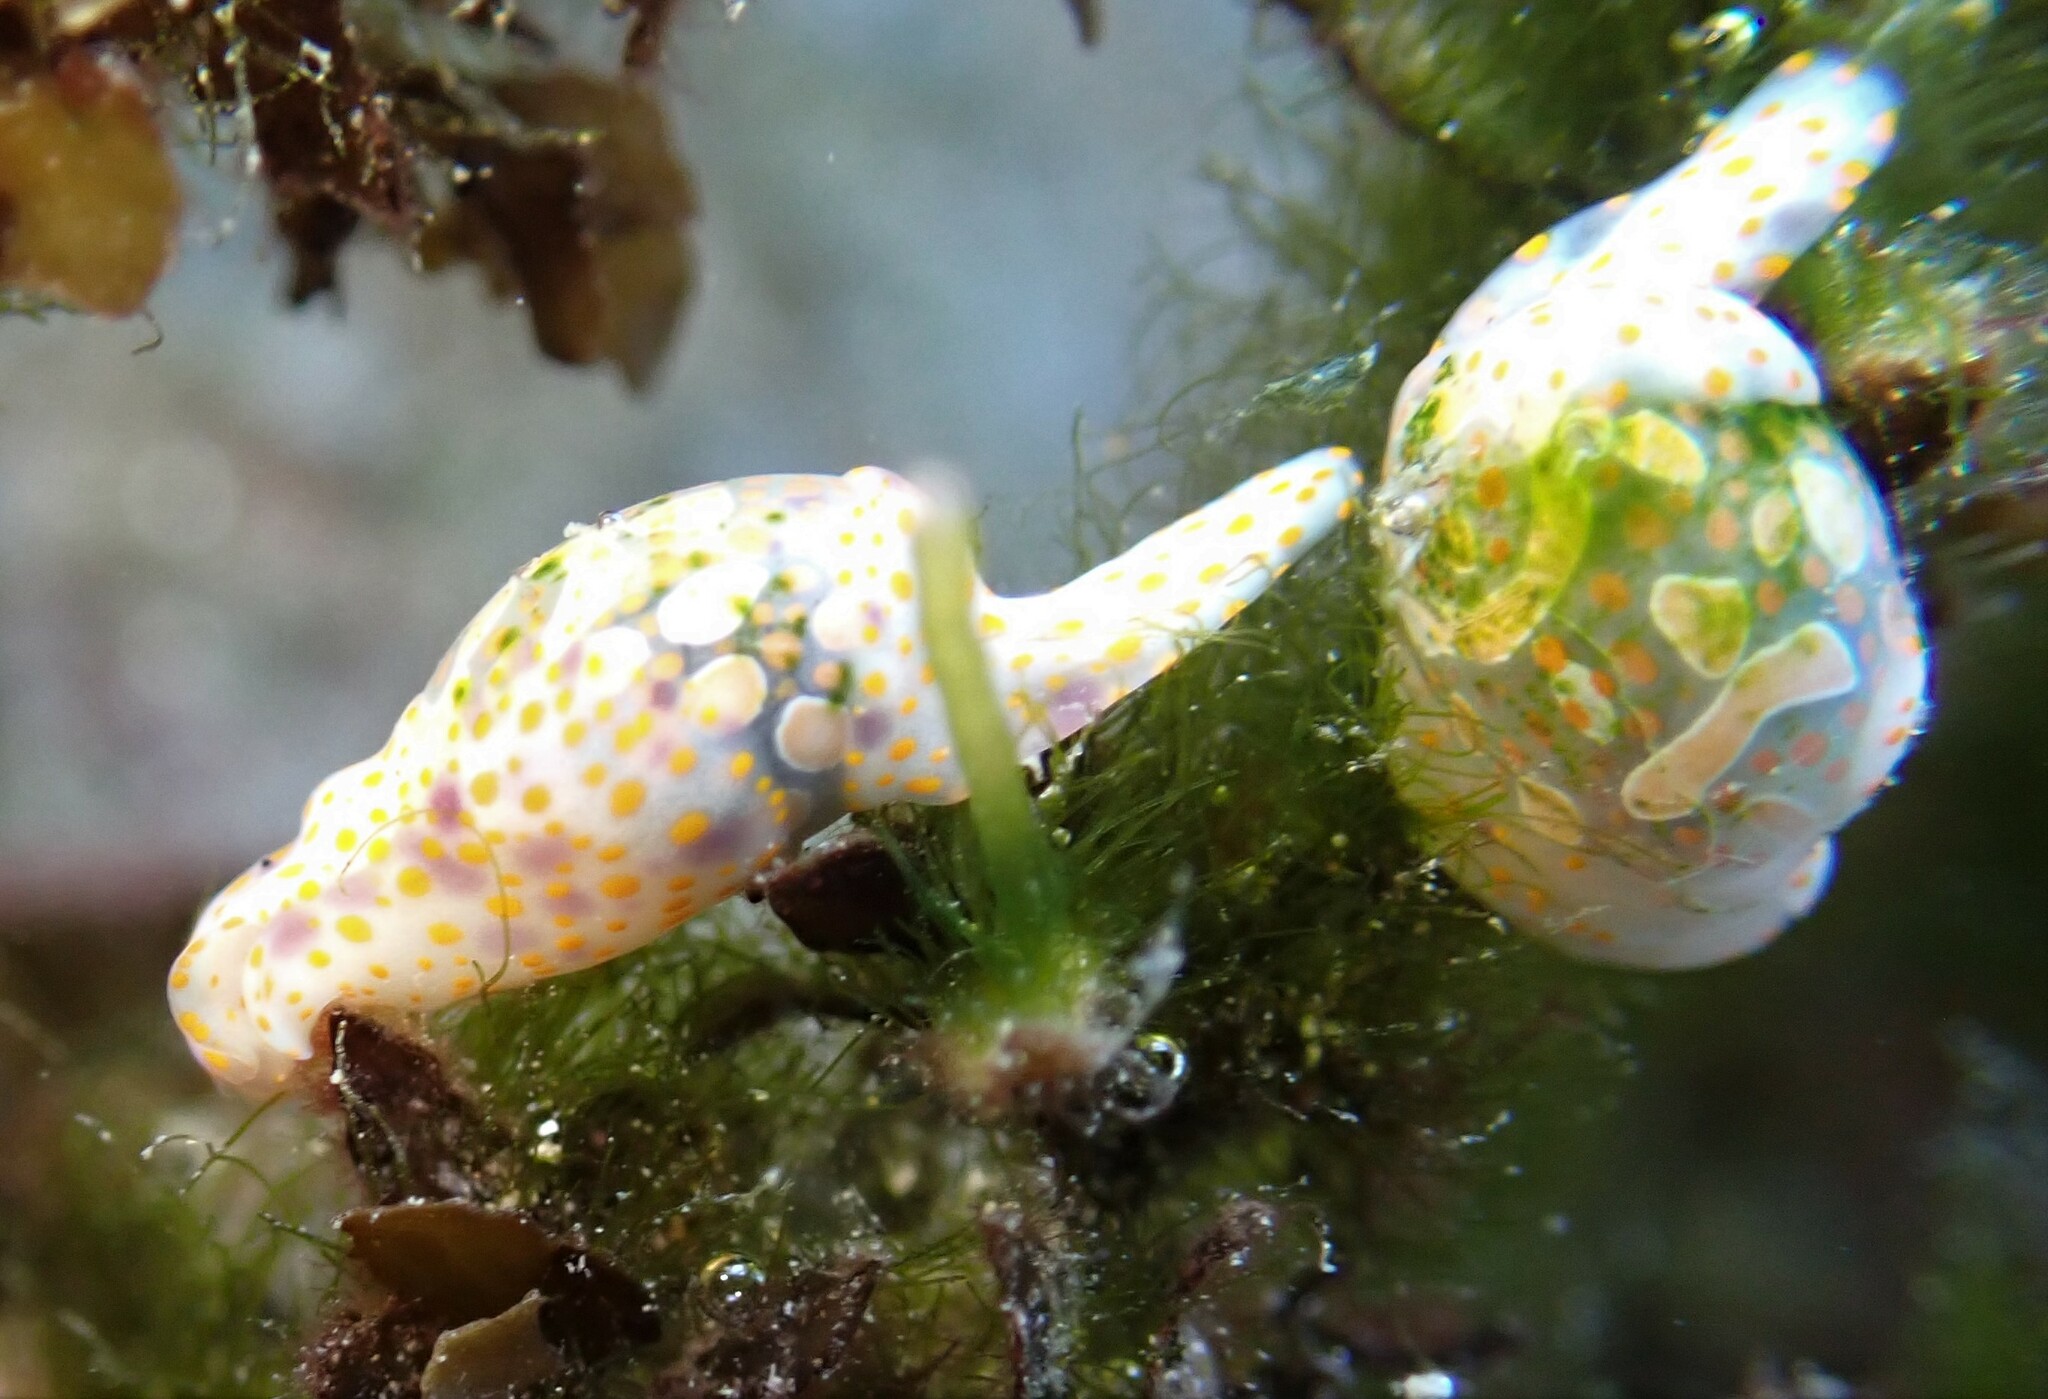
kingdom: Animalia
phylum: Mollusca
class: Gastropoda
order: Cephalaspidea
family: Haminoeidae
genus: Lamprohaminoea
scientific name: Lamprohaminoea cymbalum
